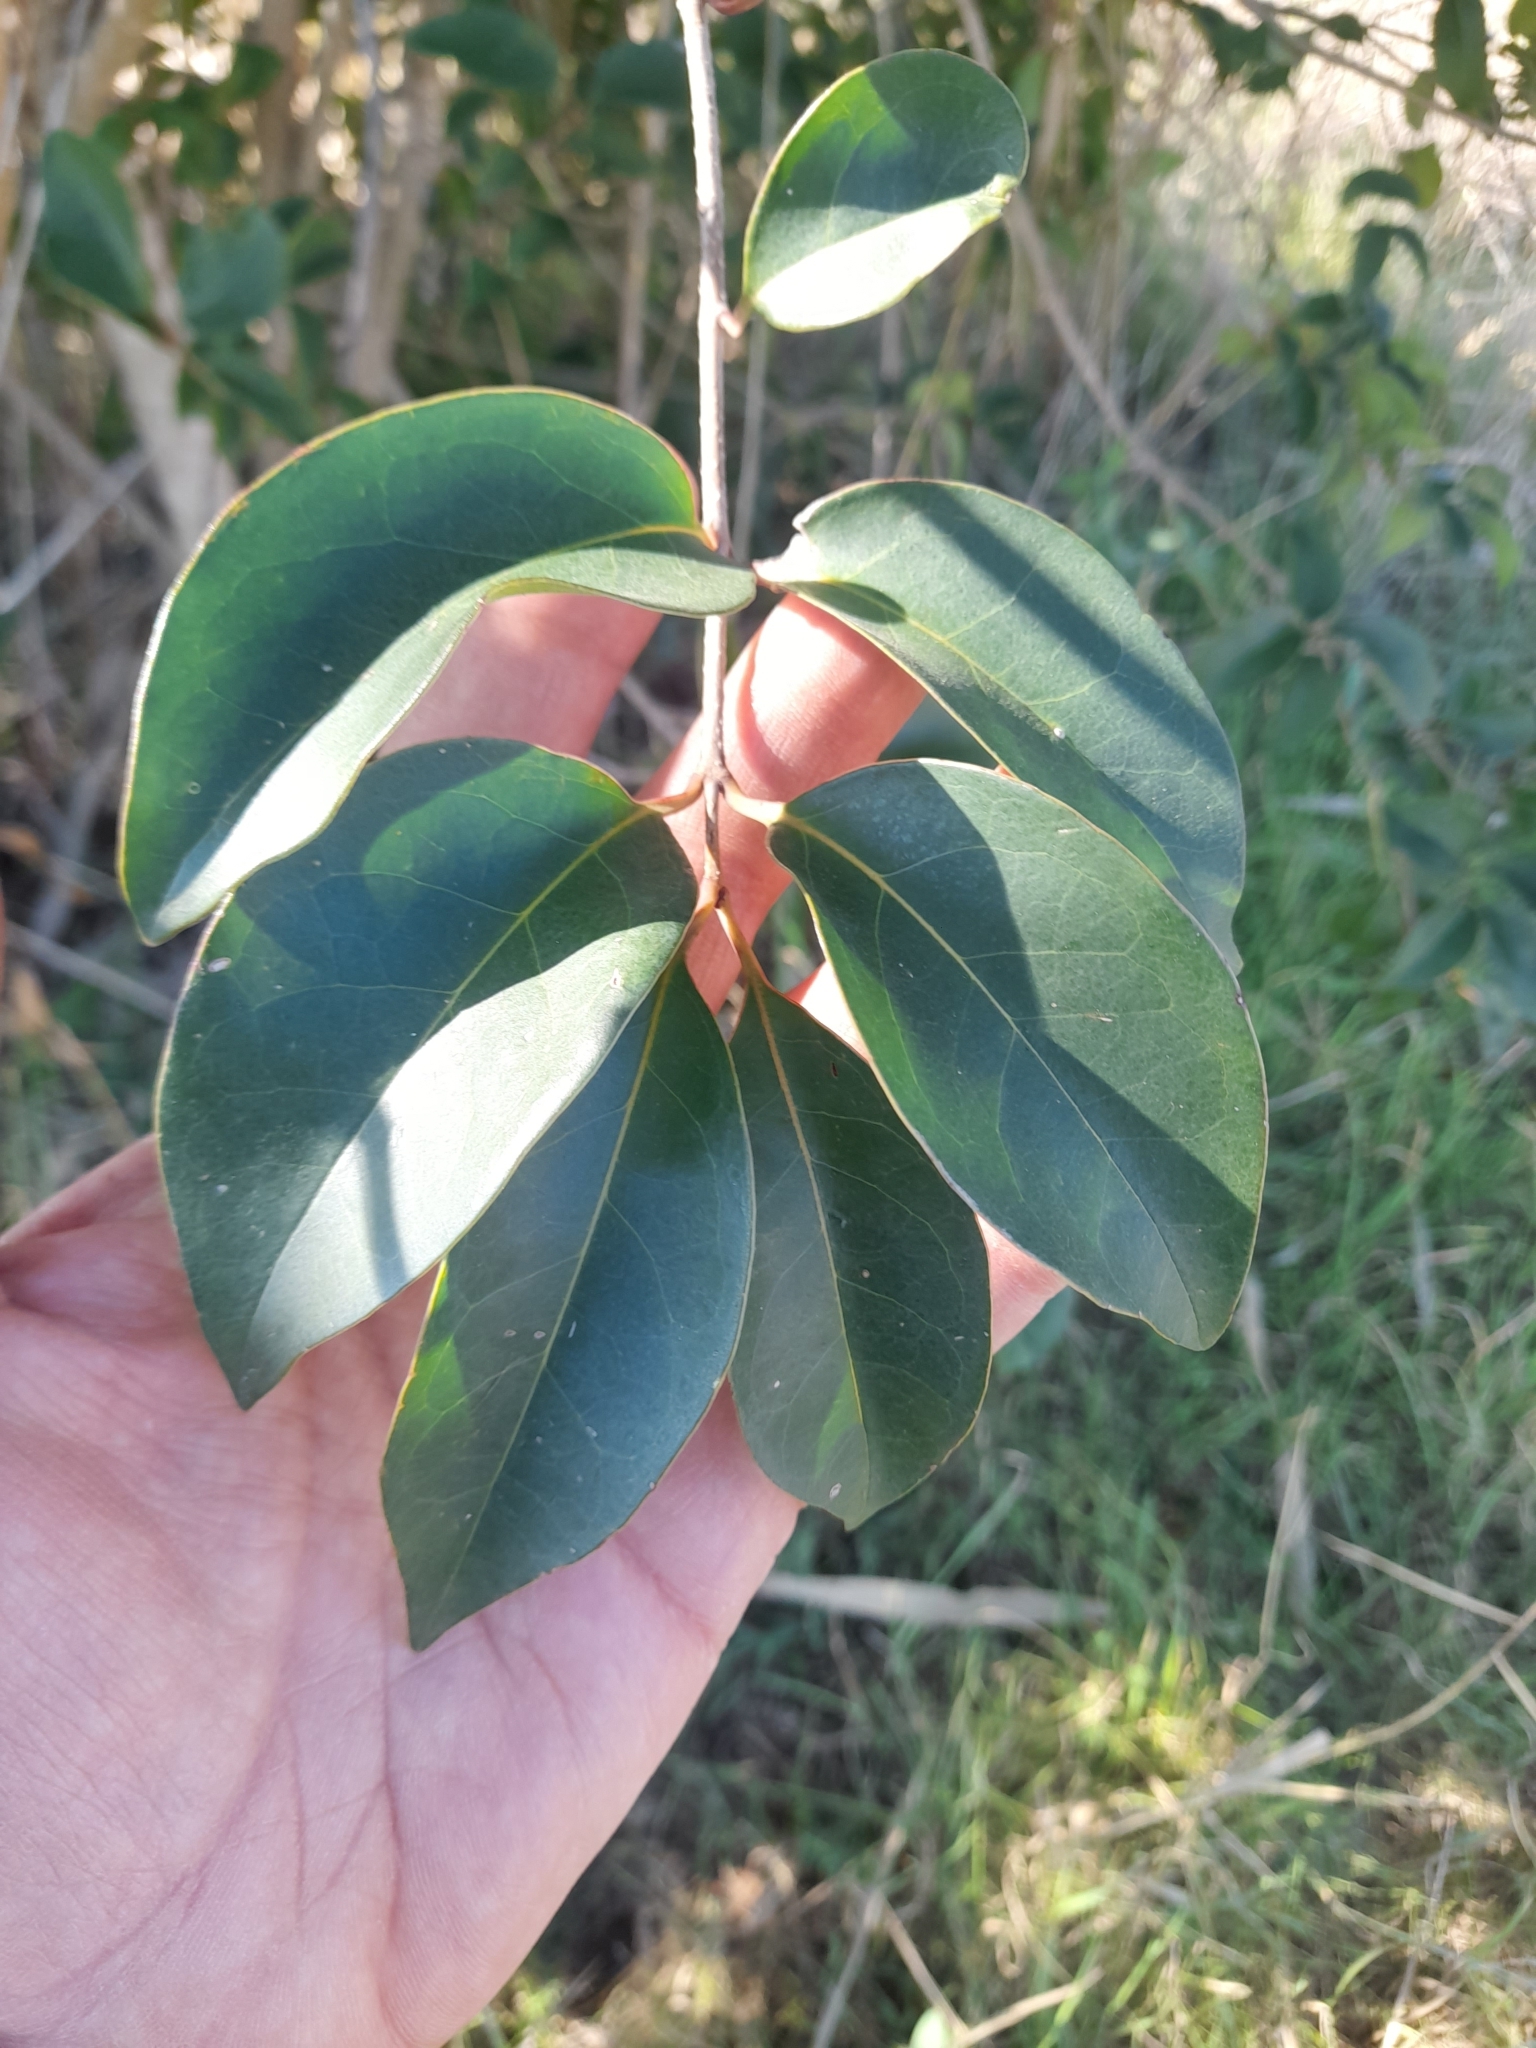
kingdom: Plantae
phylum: Tracheophyta
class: Magnoliopsida
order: Lamiales
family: Oleaceae
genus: Ligustrum
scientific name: Ligustrum lucidum
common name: Glossy privet
